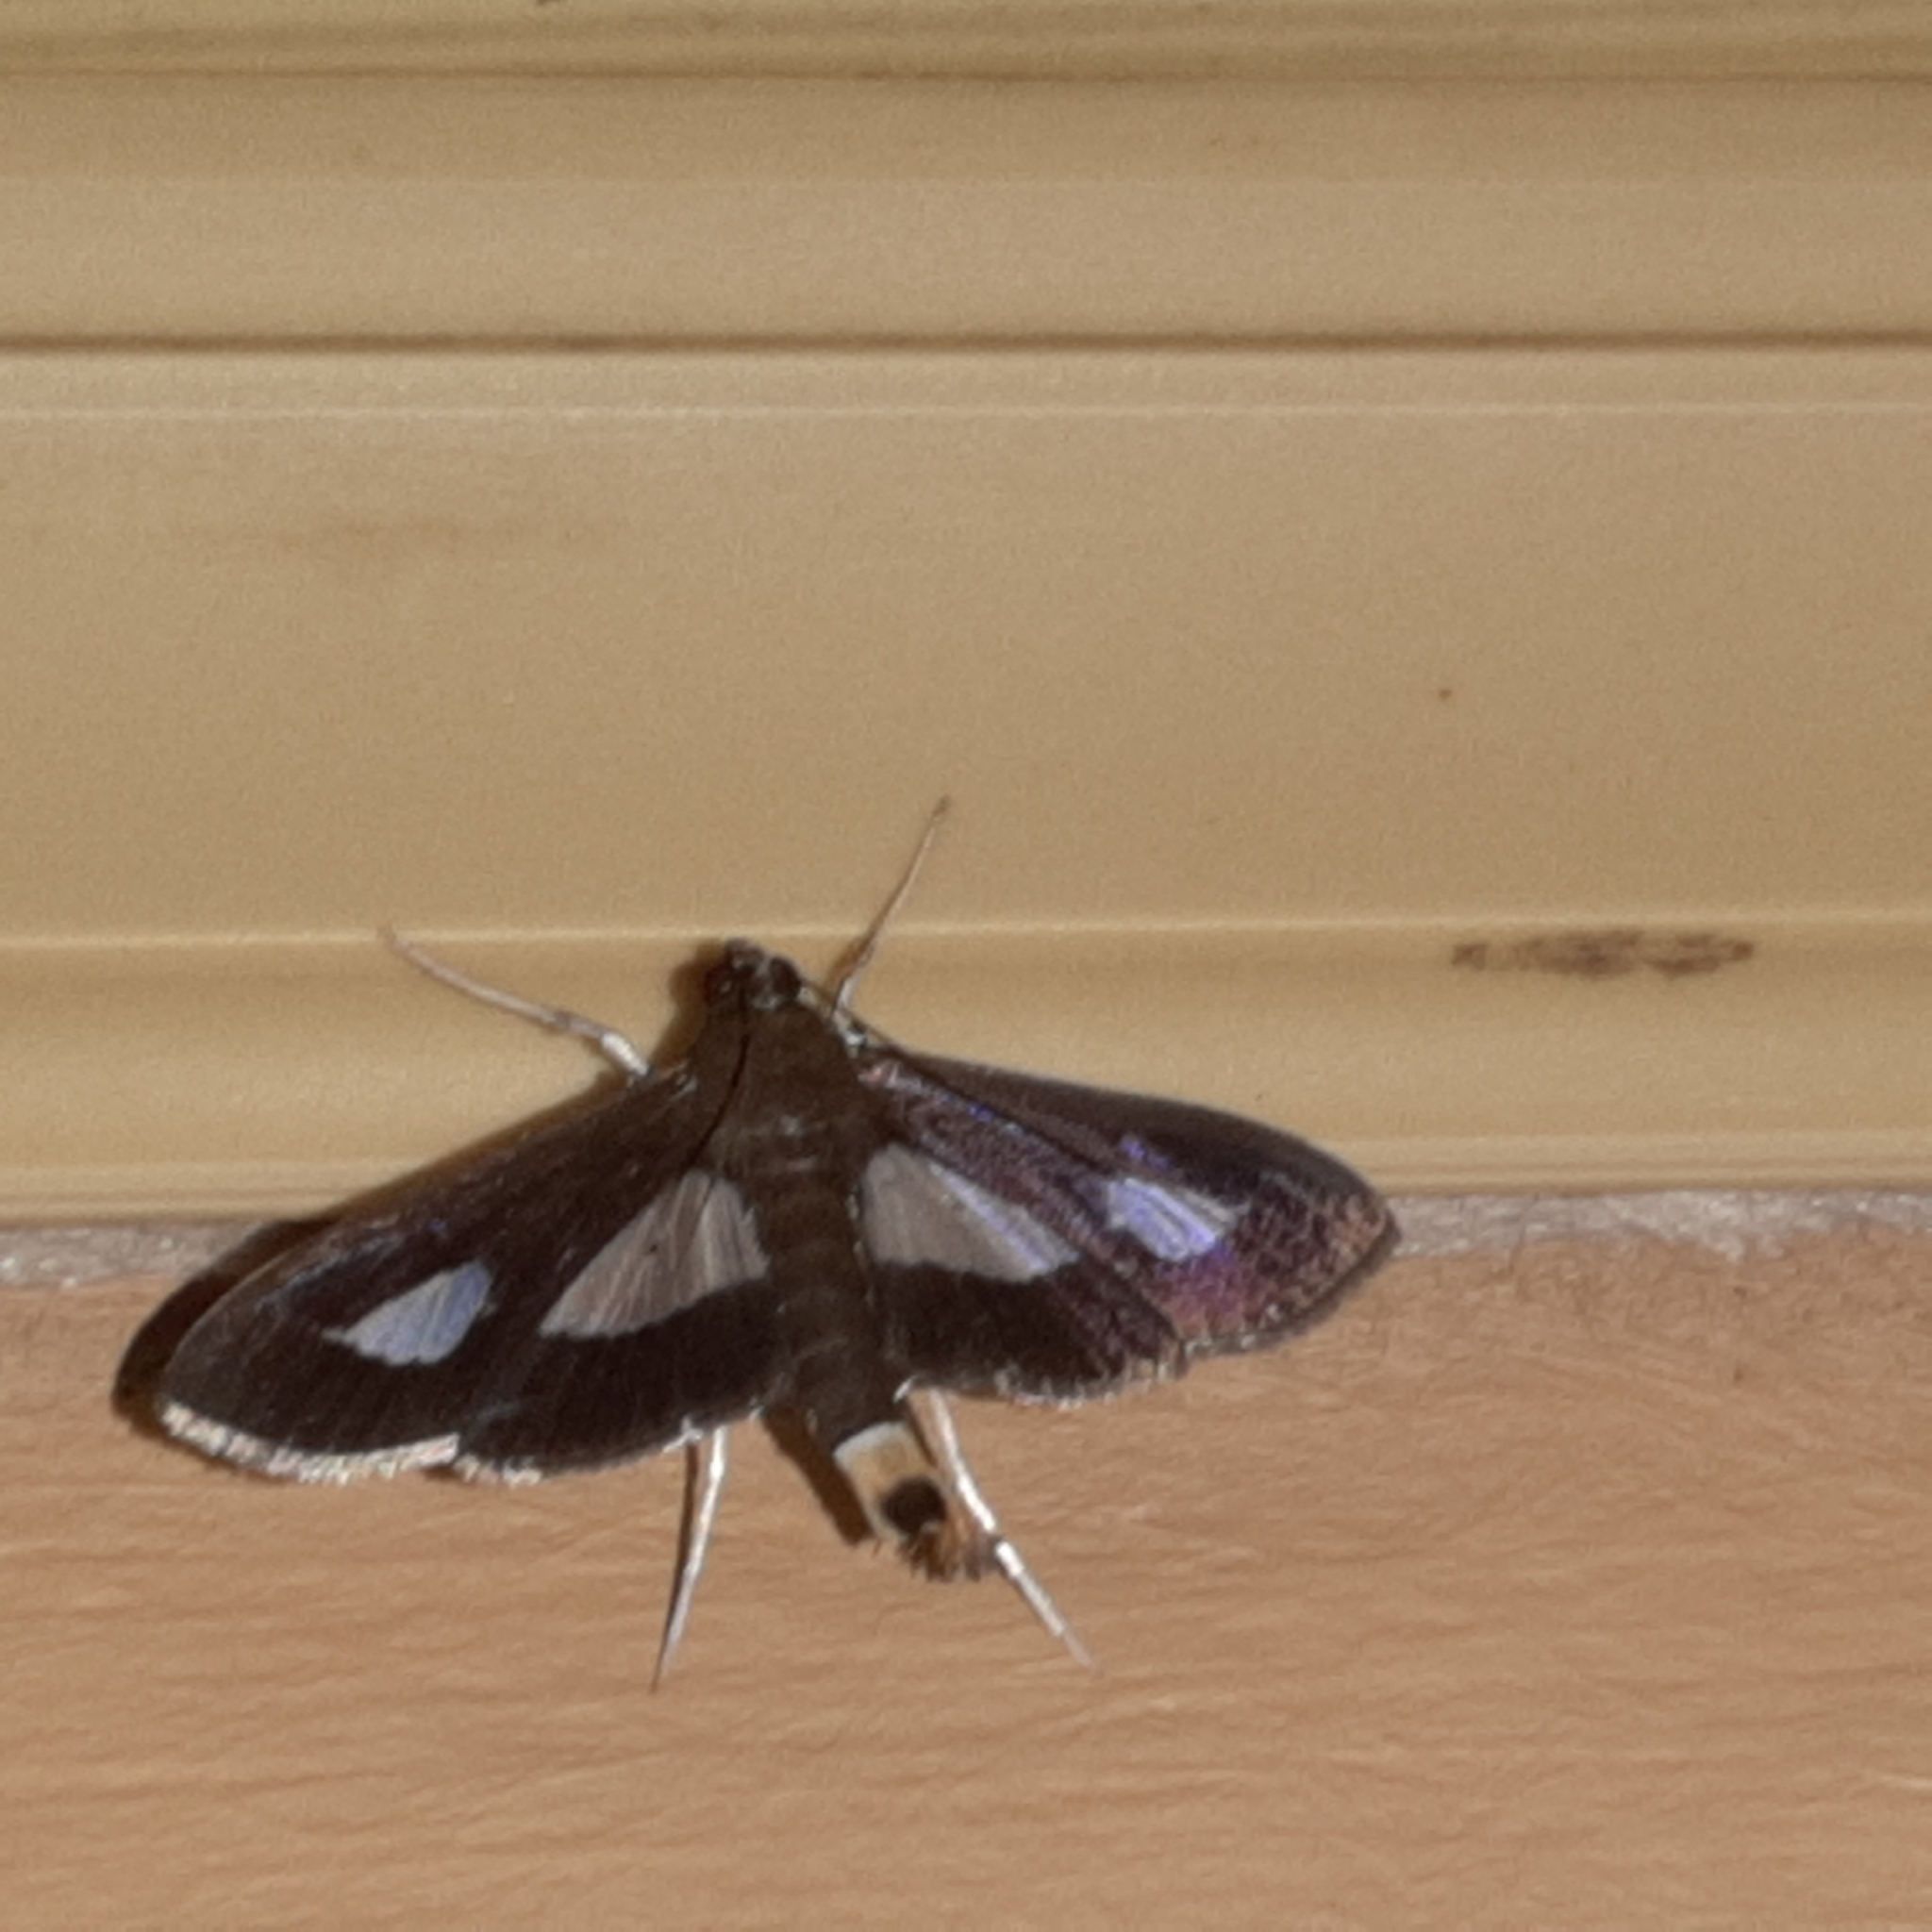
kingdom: Animalia
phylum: Arthropoda
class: Insecta
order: Lepidoptera
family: Crambidae
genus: Diaphania
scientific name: Diaphania
